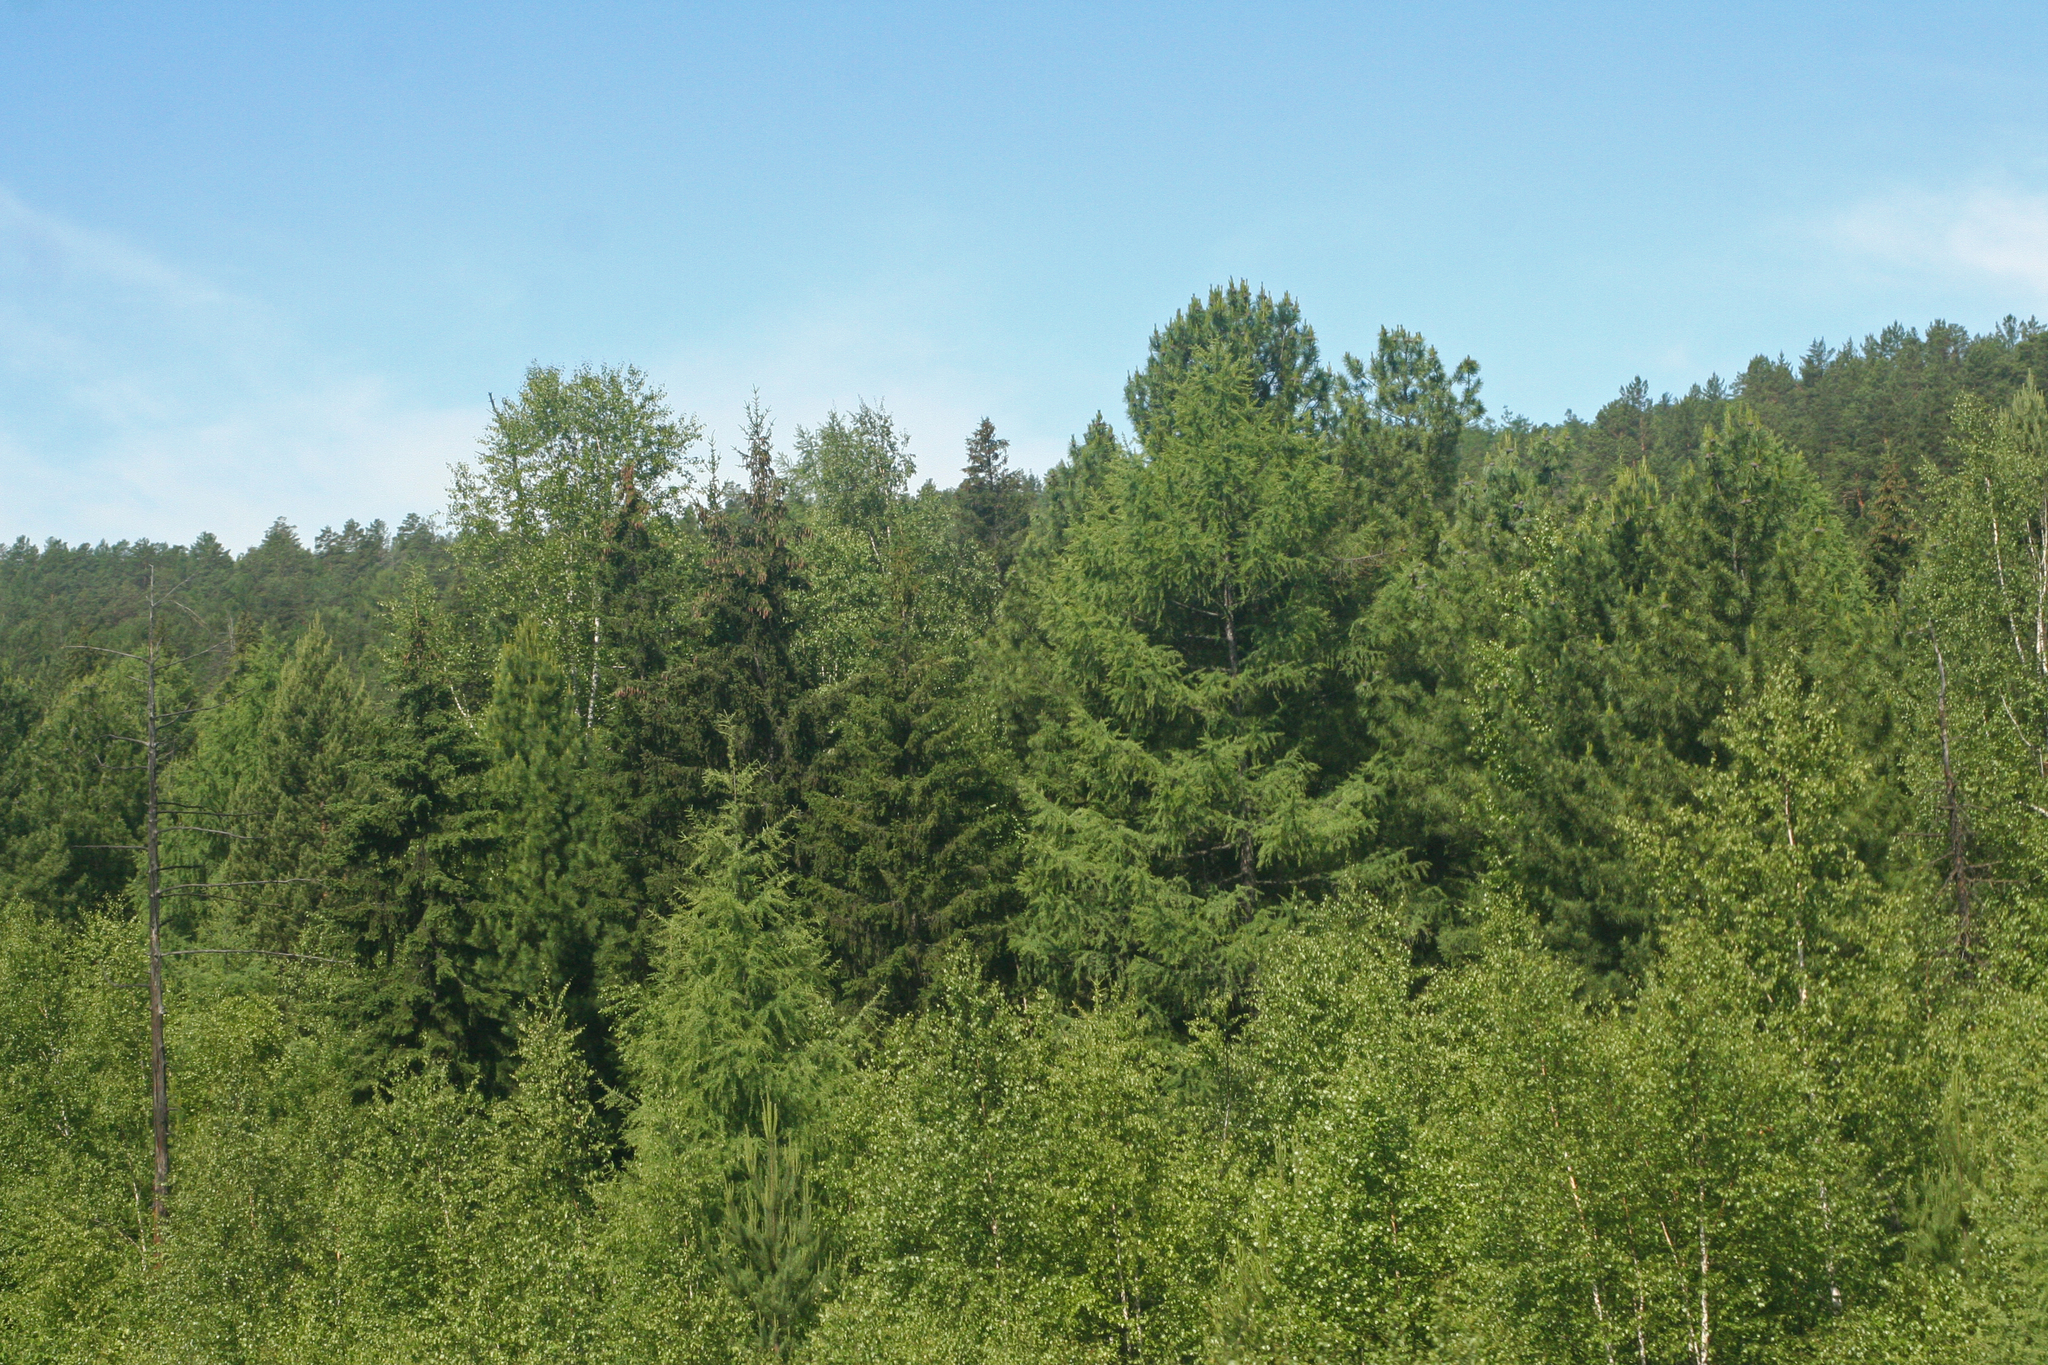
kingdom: Plantae
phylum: Tracheophyta
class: Pinopsida
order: Pinales
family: Pinaceae
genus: Pinus
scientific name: Pinus sibirica
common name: Siberian pine
